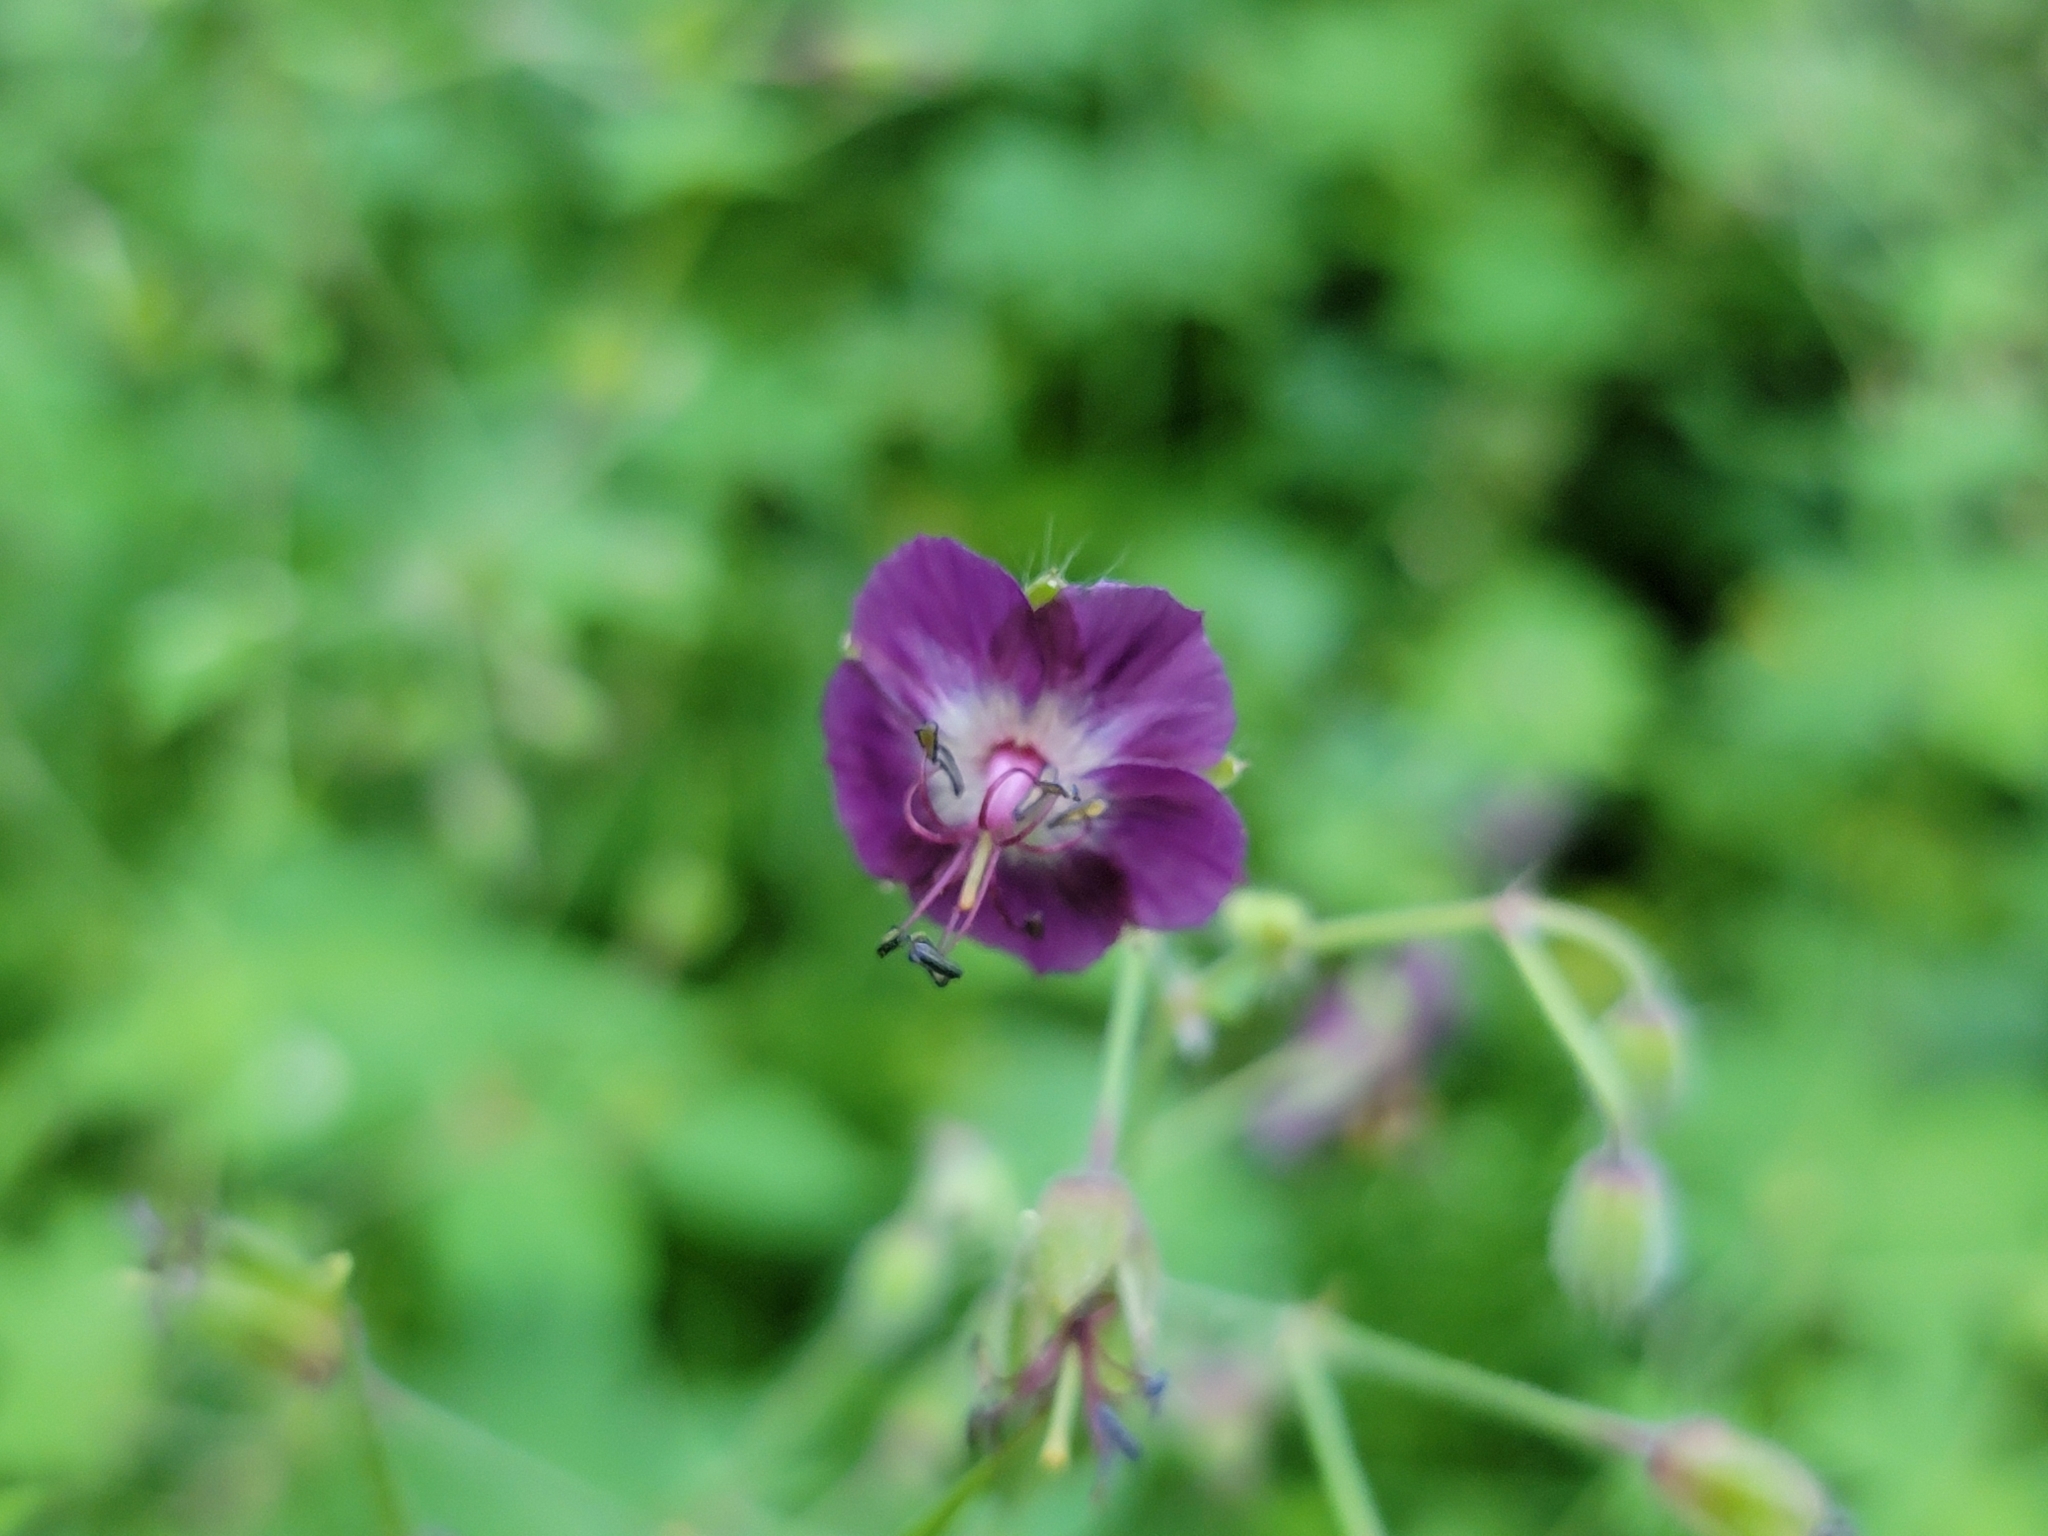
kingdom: Plantae
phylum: Tracheophyta
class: Magnoliopsida
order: Geraniales
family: Geraniaceae
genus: Geranium
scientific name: Geranium phaeum
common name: Dusky crane's-bill
